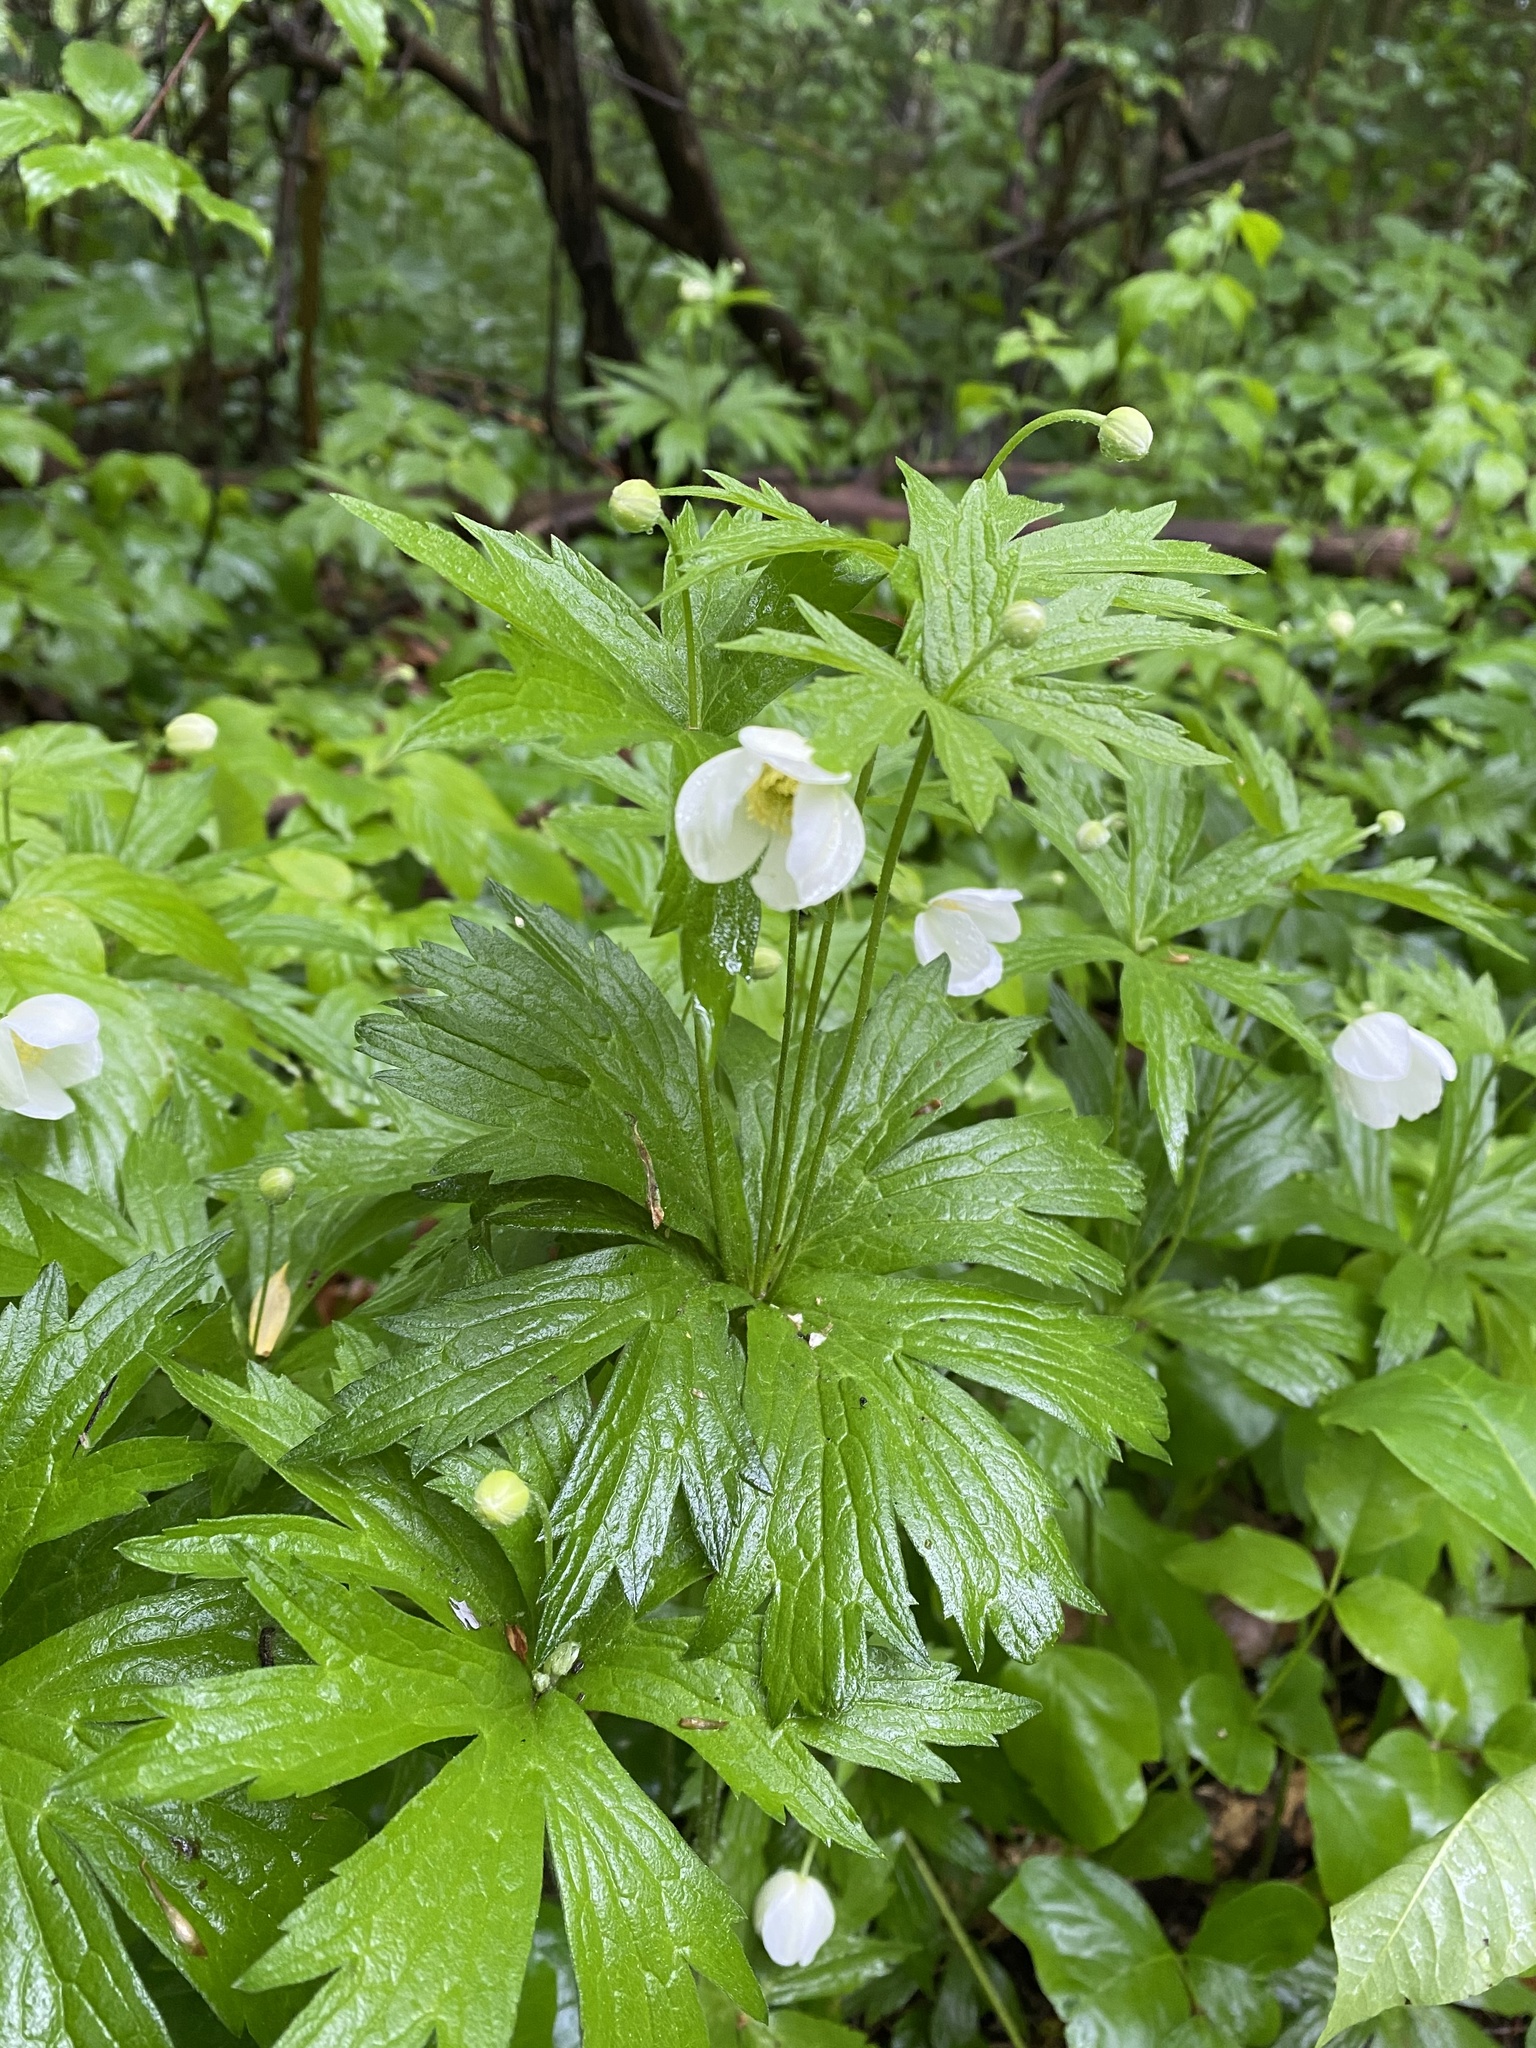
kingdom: Plantae
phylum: Tracheophyta
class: Magnoliopsida
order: Ranunculales
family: Ranunculaceae
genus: Anemonastrum
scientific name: Anemonastrum canadense
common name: Canada anemone
